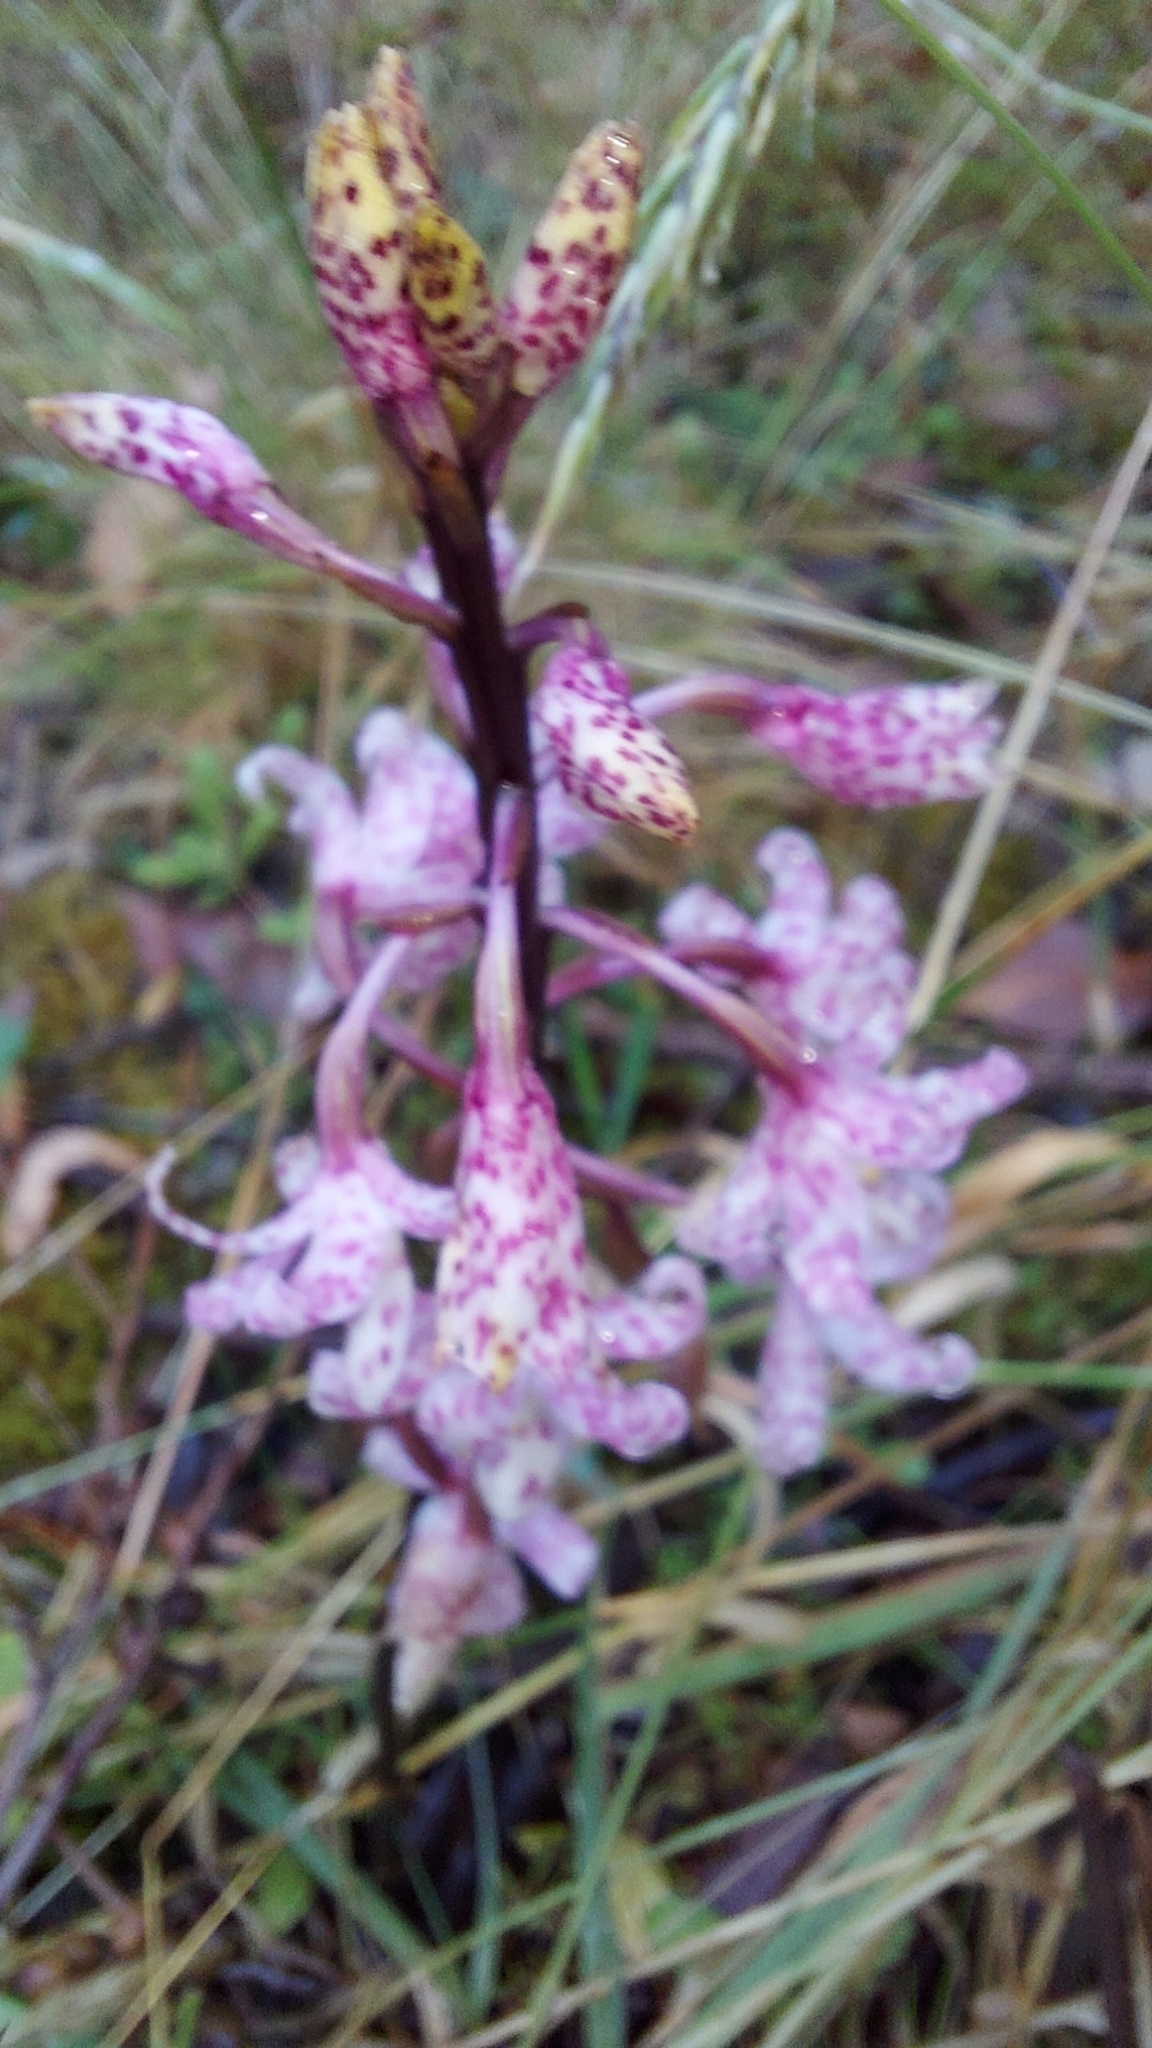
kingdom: Plantae
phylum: Tracheophyta
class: Liliopsida
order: Asparagales
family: Orchidaceae
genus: Dipodium
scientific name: Dipodium pardalinum
